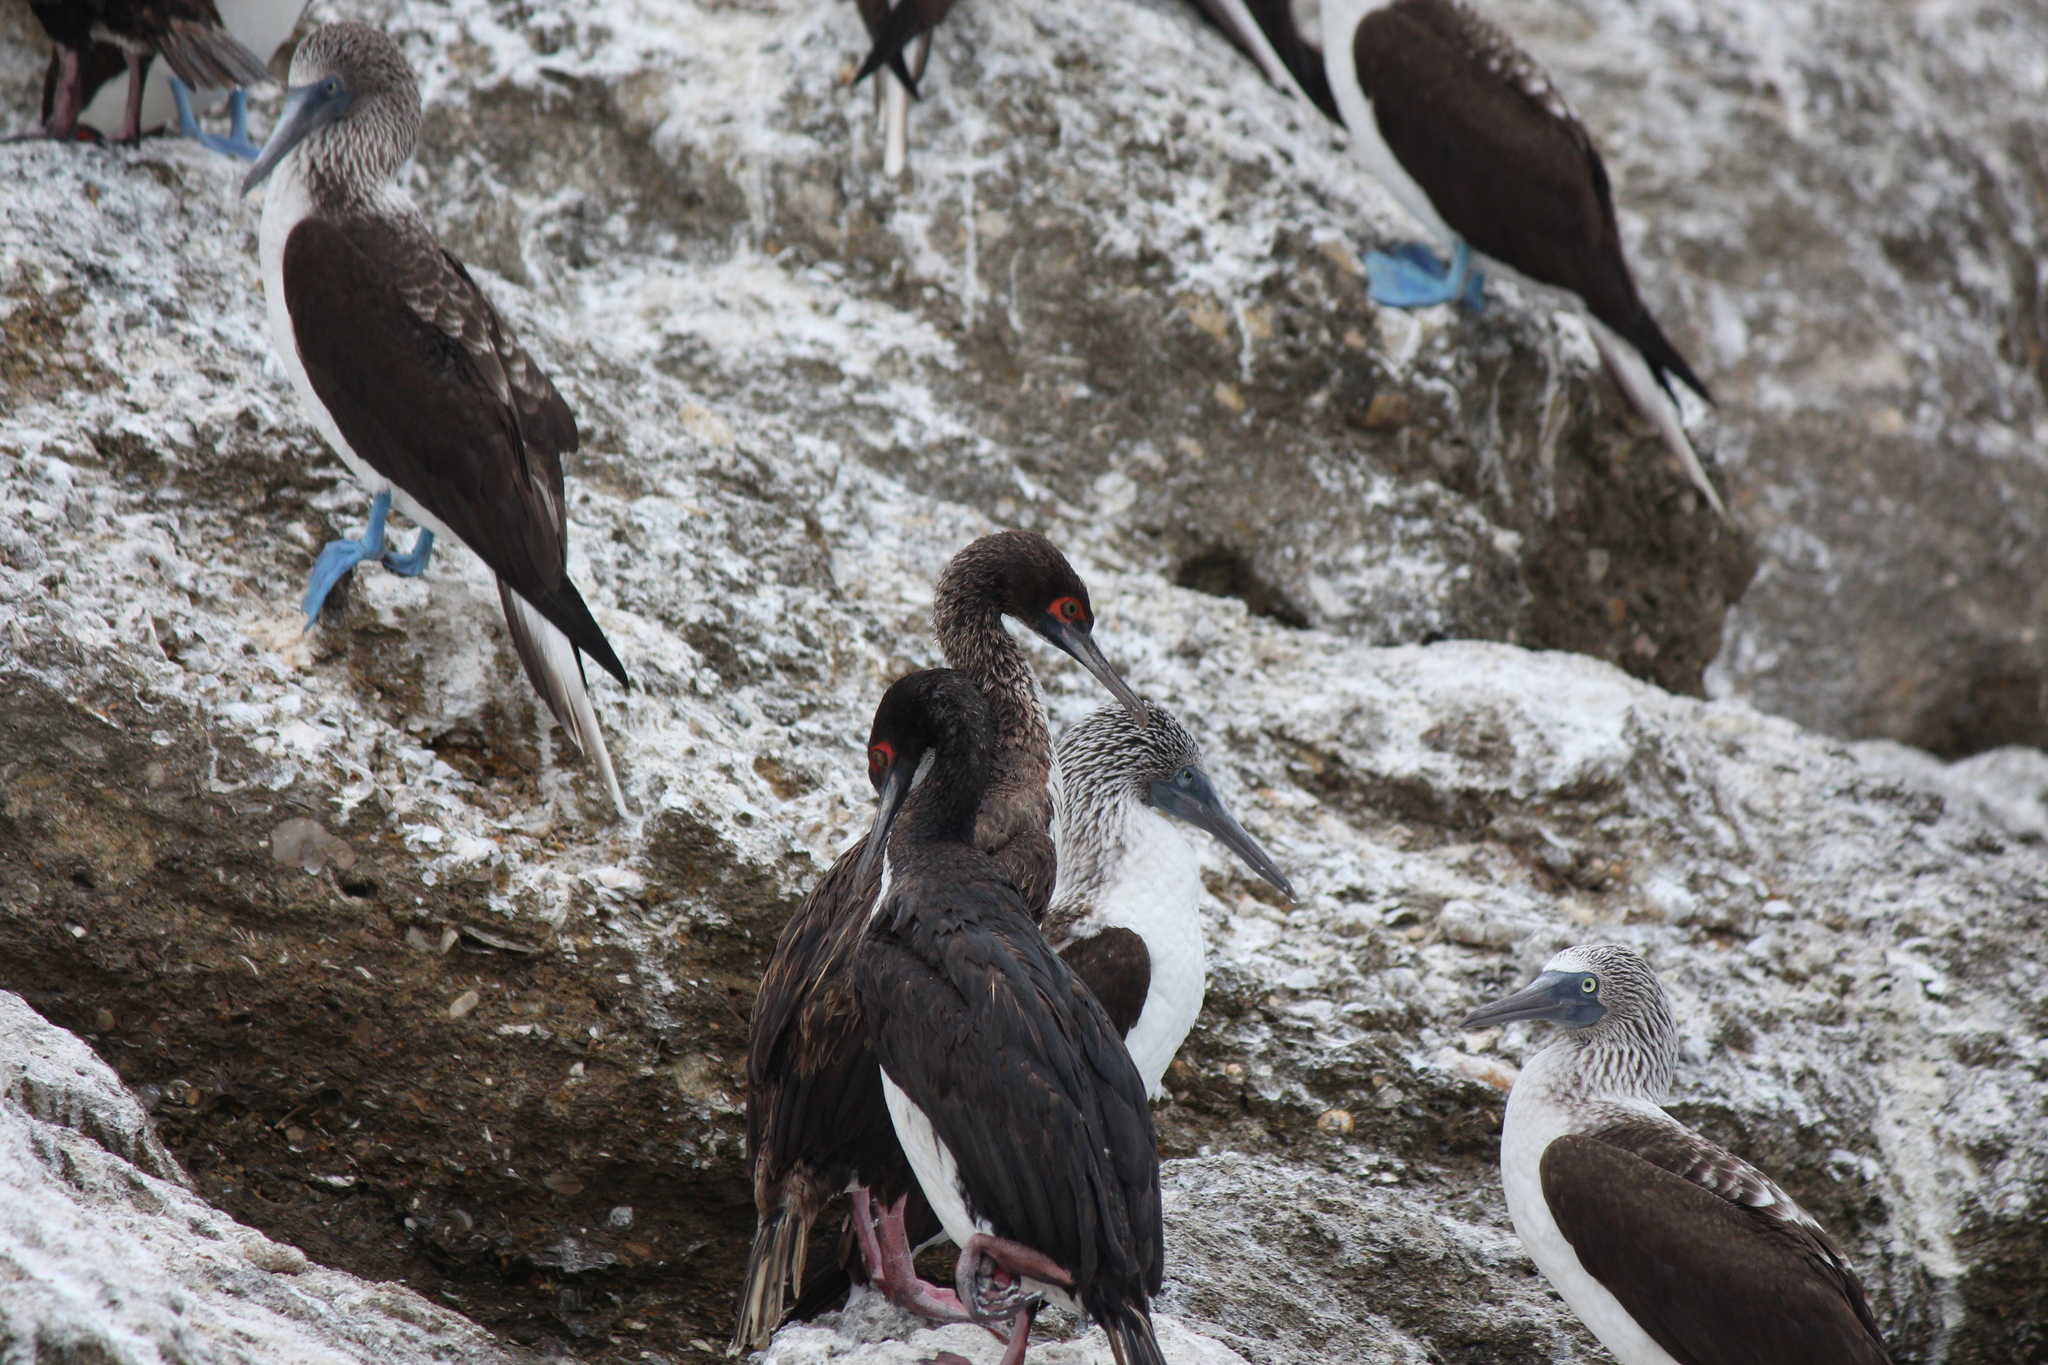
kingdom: Animalia
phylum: Chordata
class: Aves
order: Suliformes
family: Phalacrocoracidae
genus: Leucocarbo
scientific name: Leucocarbo bougainvillii
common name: Guanay cormorant
